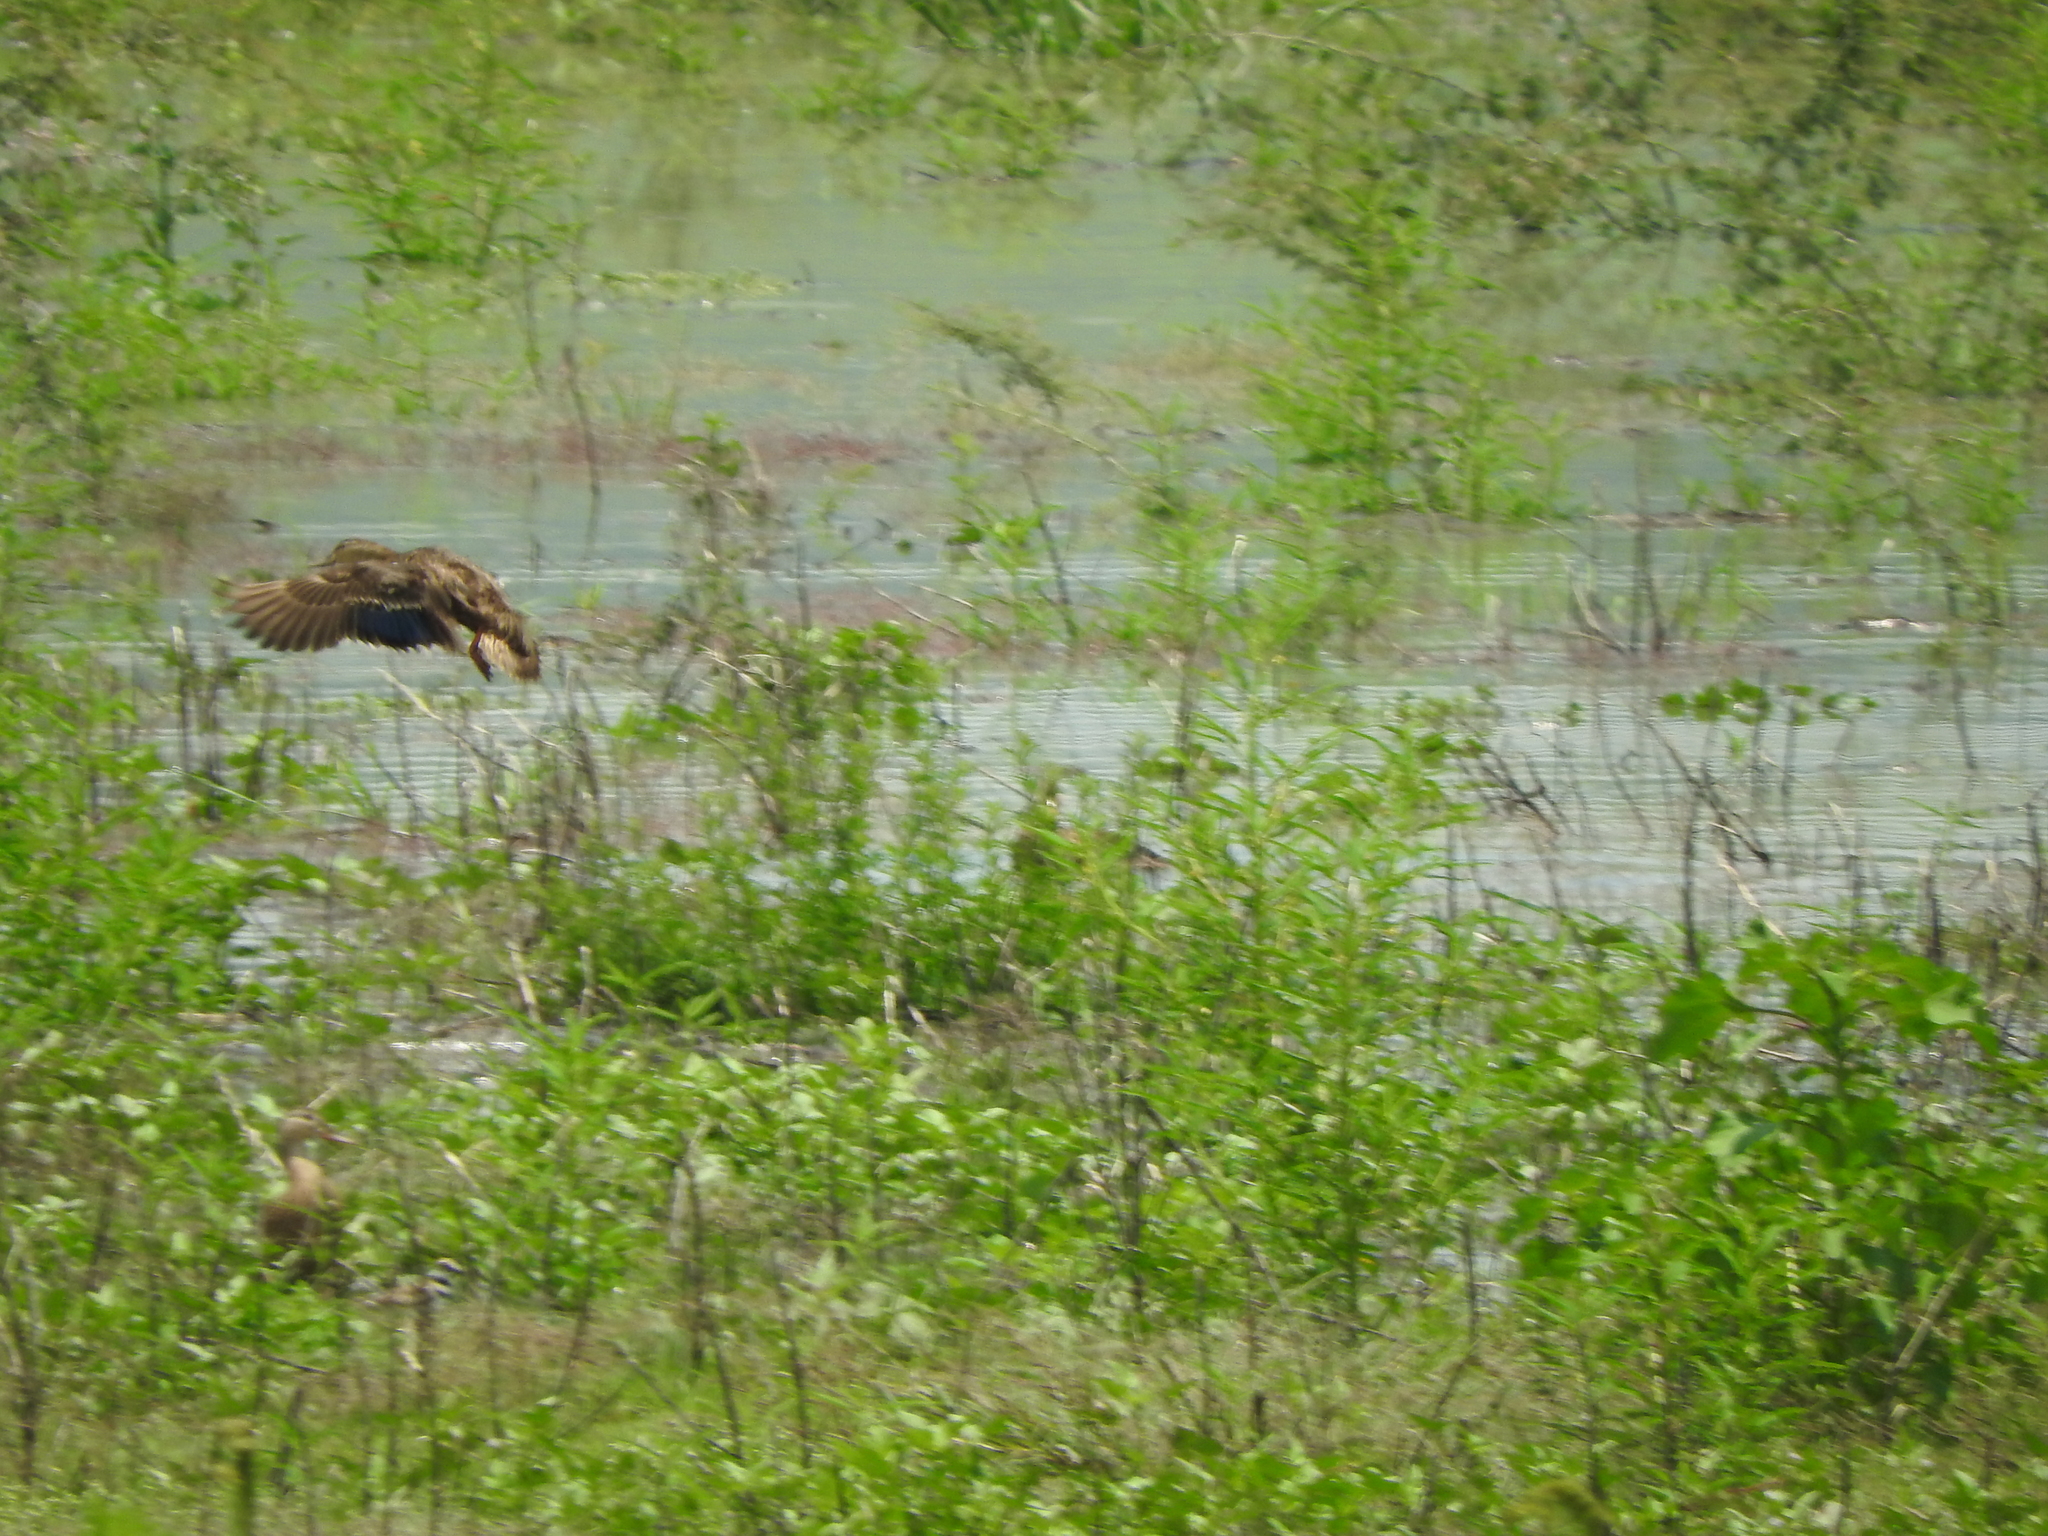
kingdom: Animalia
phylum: Chordata
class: Aves
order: Anseriformes
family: Anatidae
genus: Anas
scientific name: Anas diazi
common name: Mexican duck
